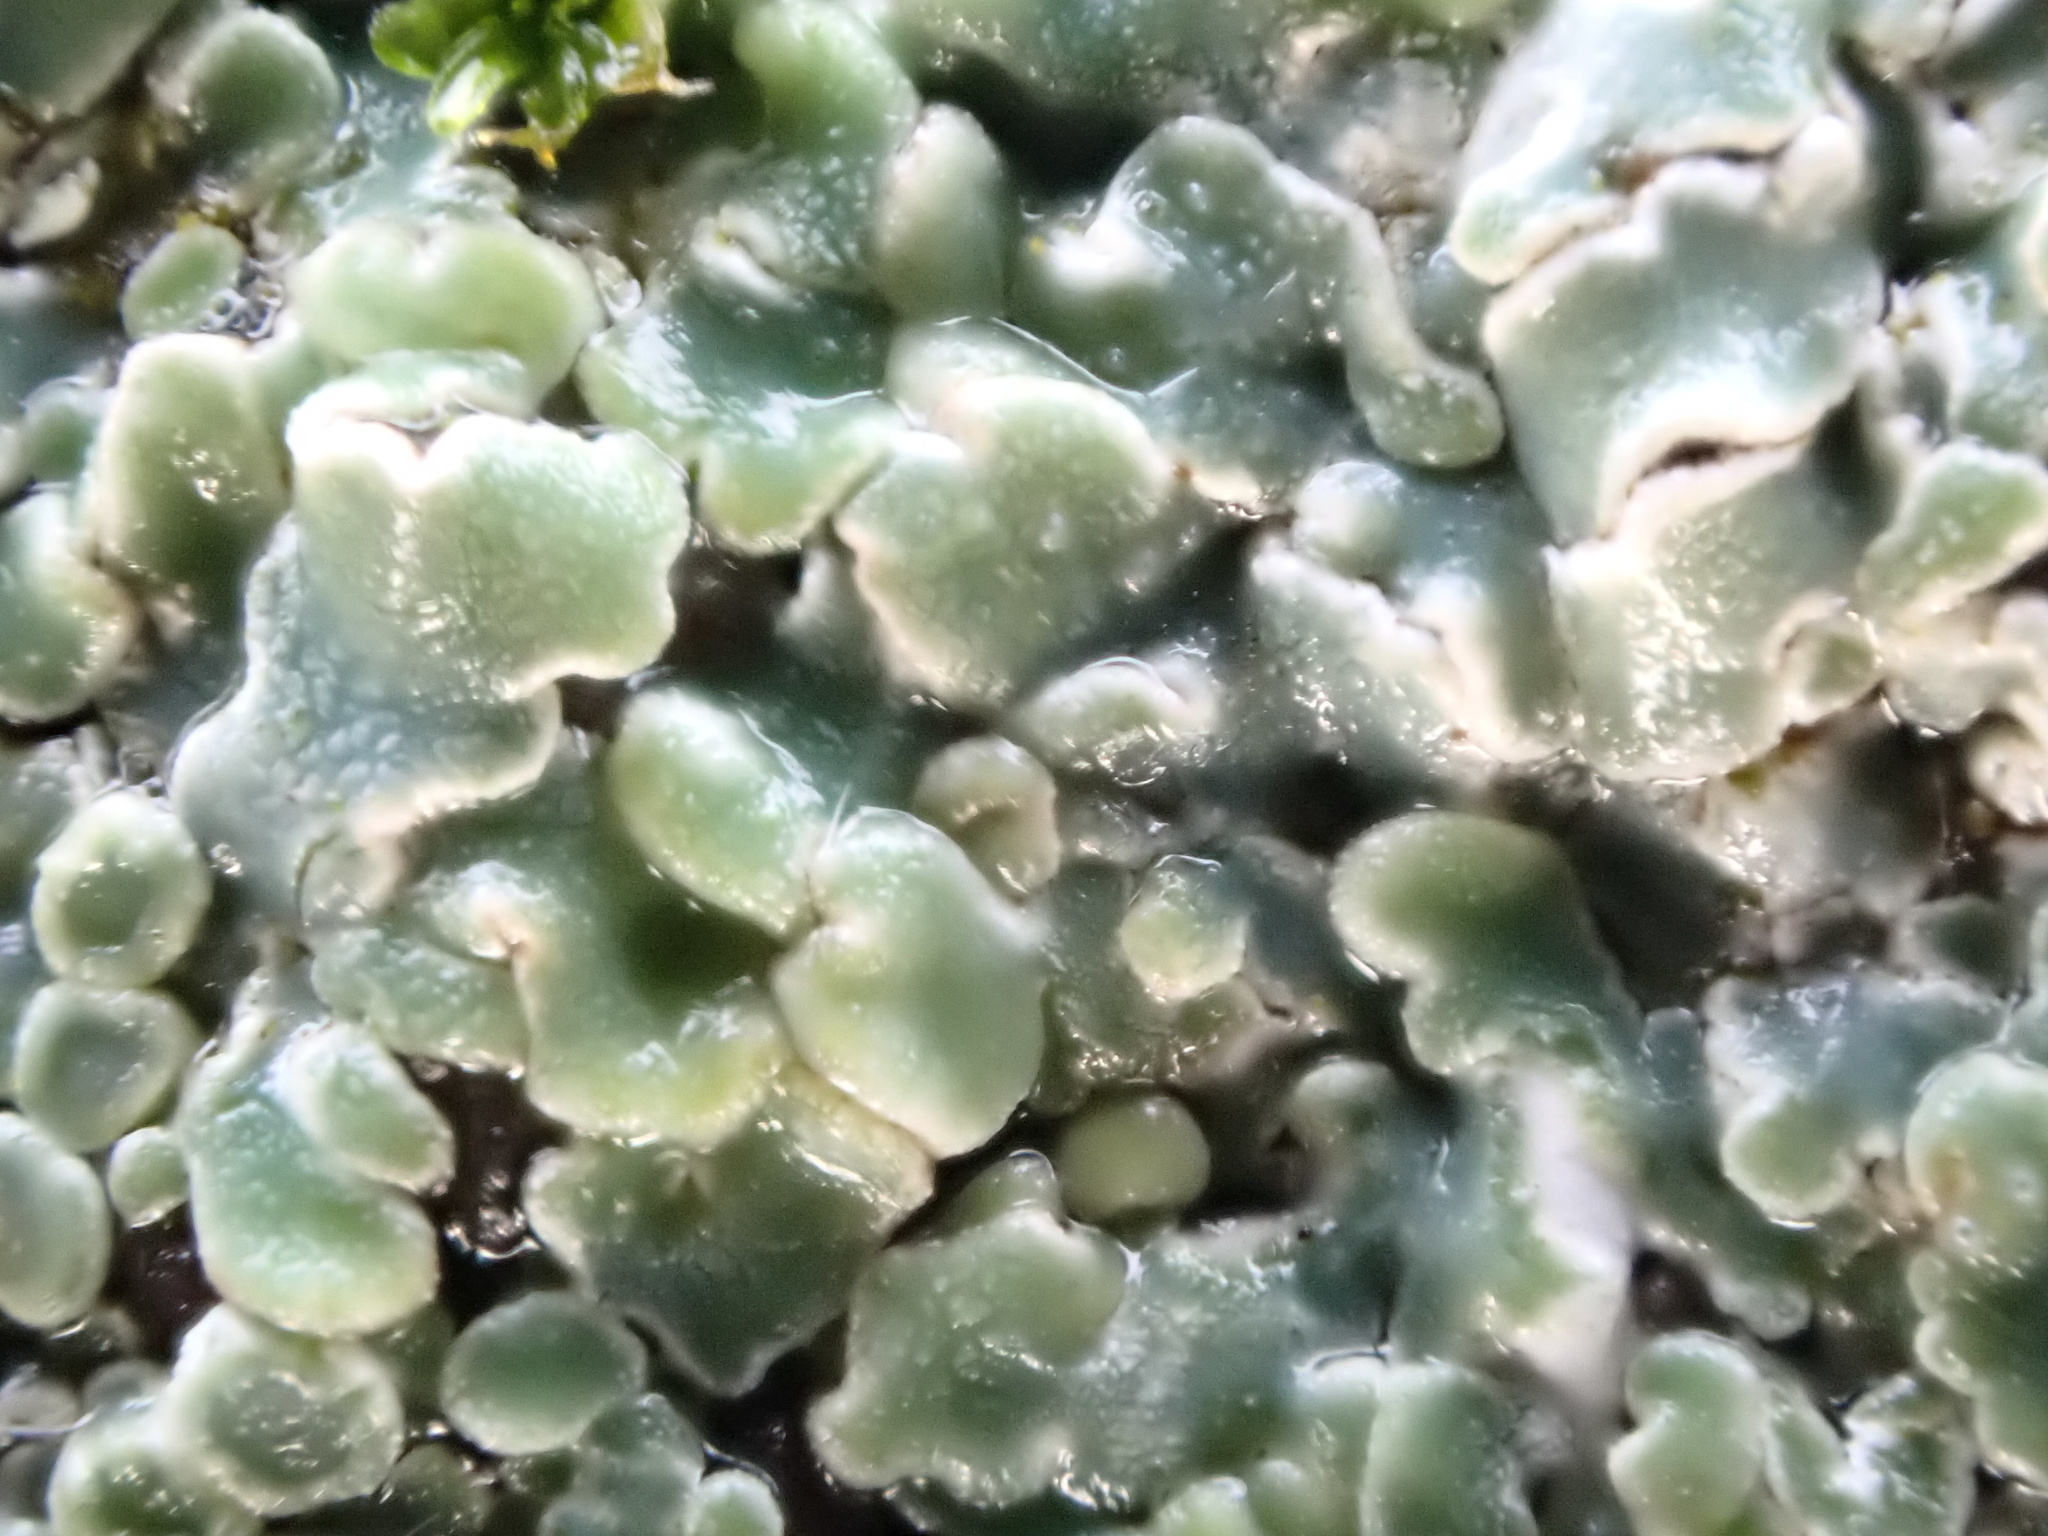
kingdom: Fungi
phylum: Ascomycota
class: Lecanoromycetes
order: Lecanorales
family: Lecanoraceae
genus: Protoparmeliopsis
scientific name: Protoparmeliopsis muralis
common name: Stonewall rim lichen
